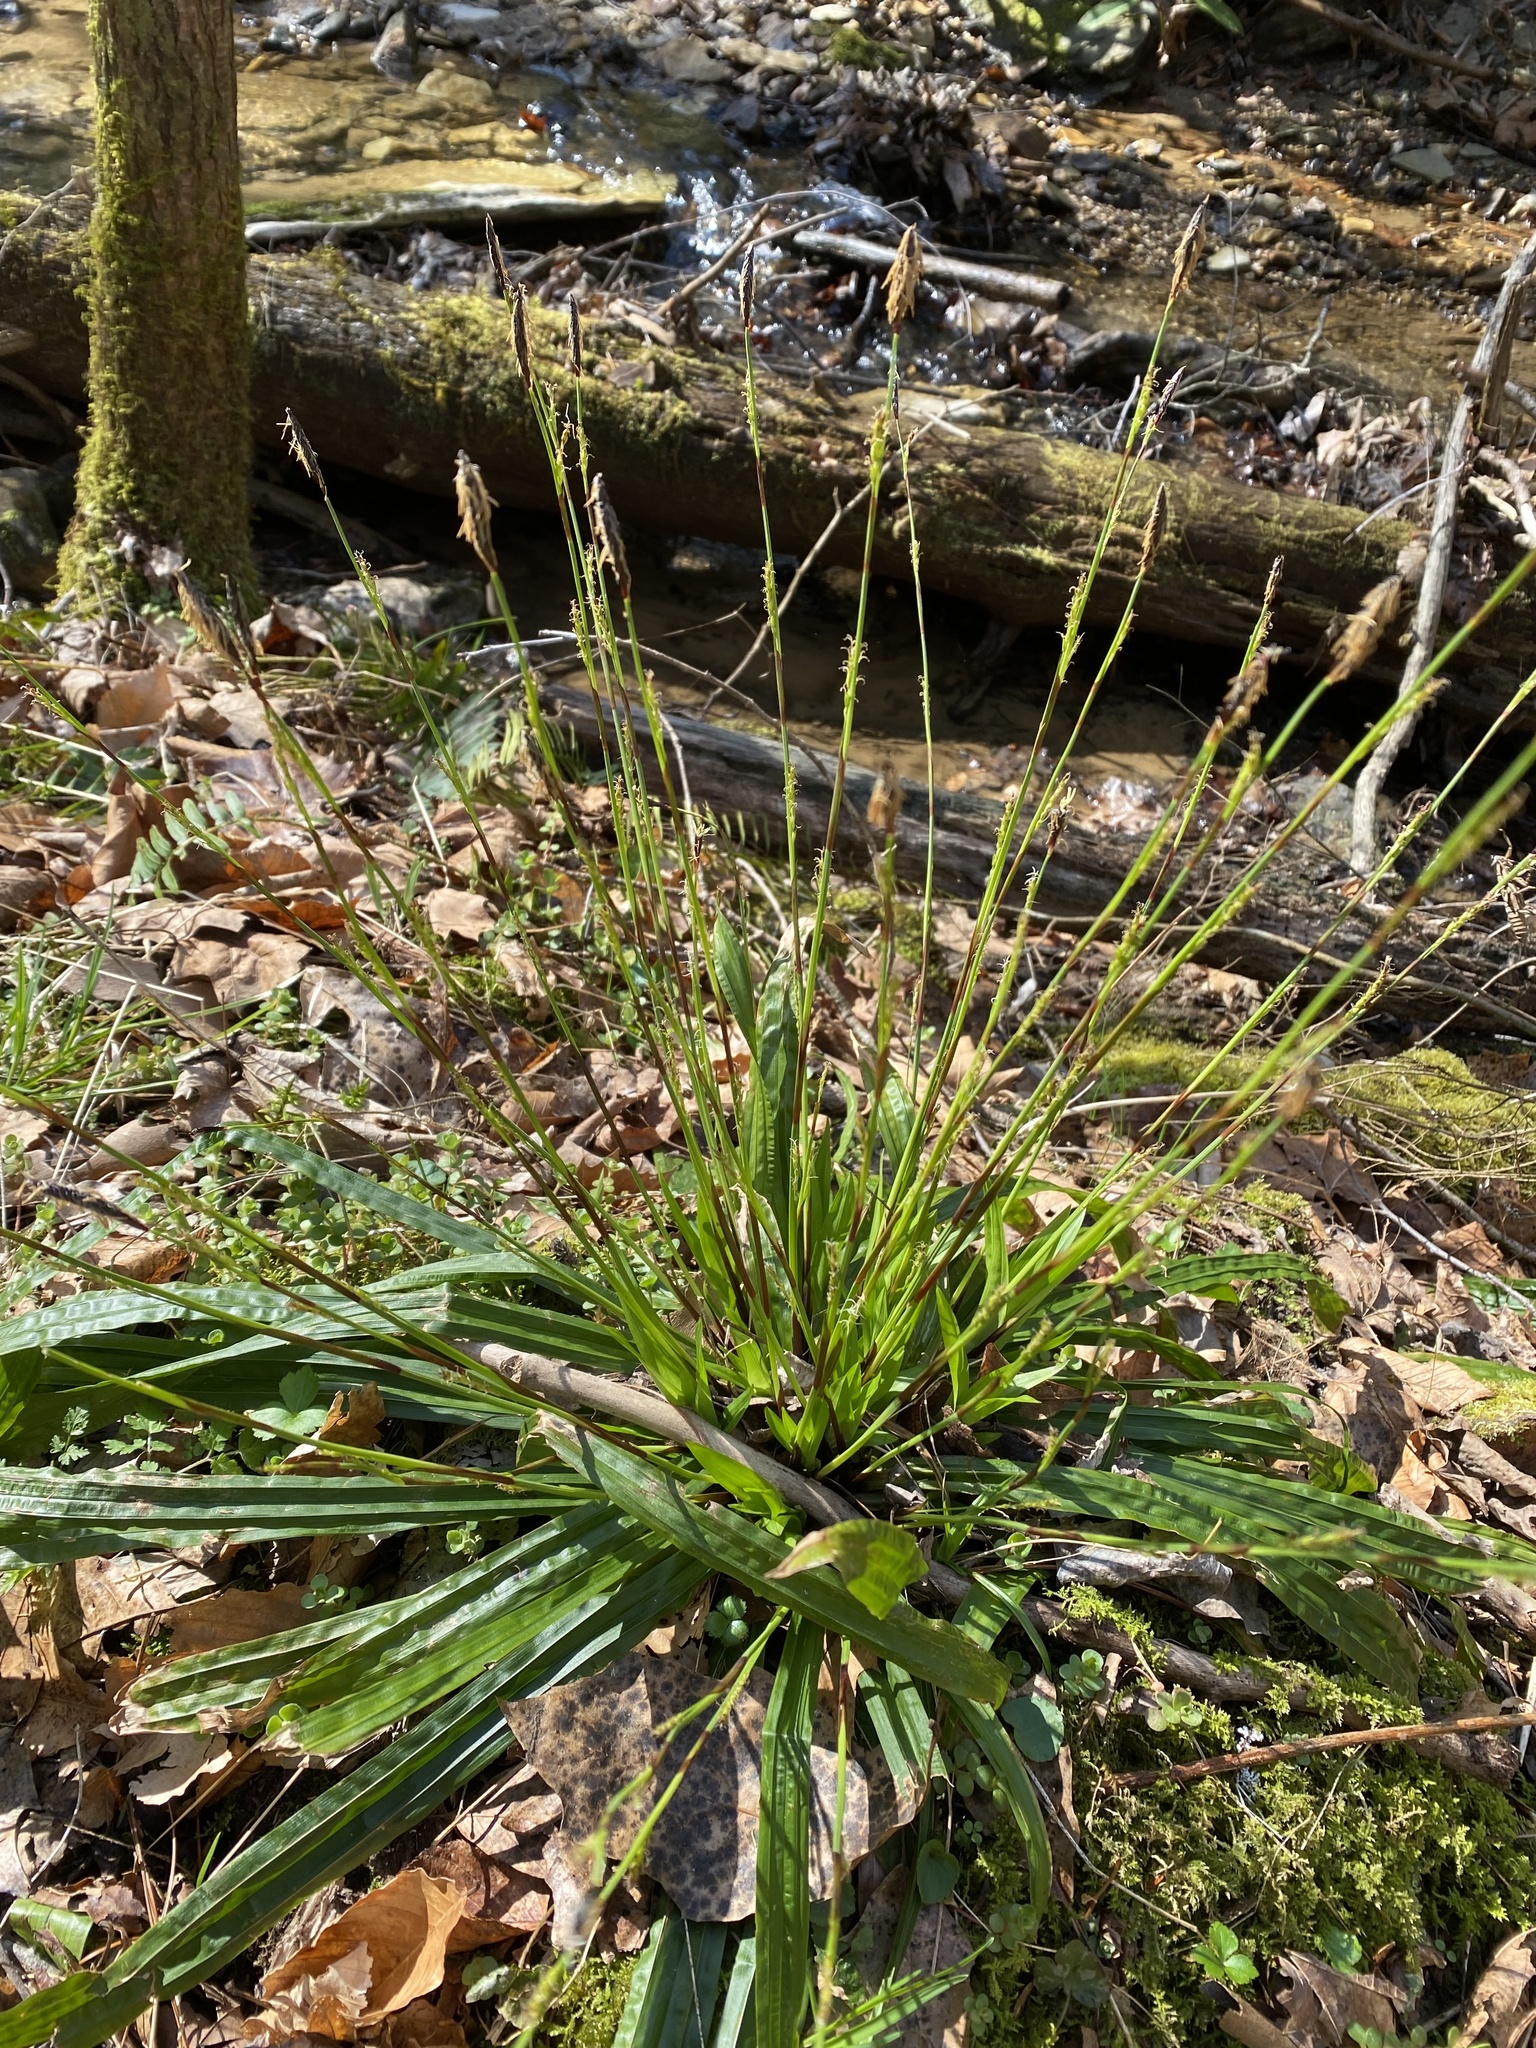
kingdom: Plantae
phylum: Tracheophyta
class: Liliopsida
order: Poales
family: Cyperaceae
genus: Carex
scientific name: Carex plantaginea
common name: Plantain-leaved sedge
